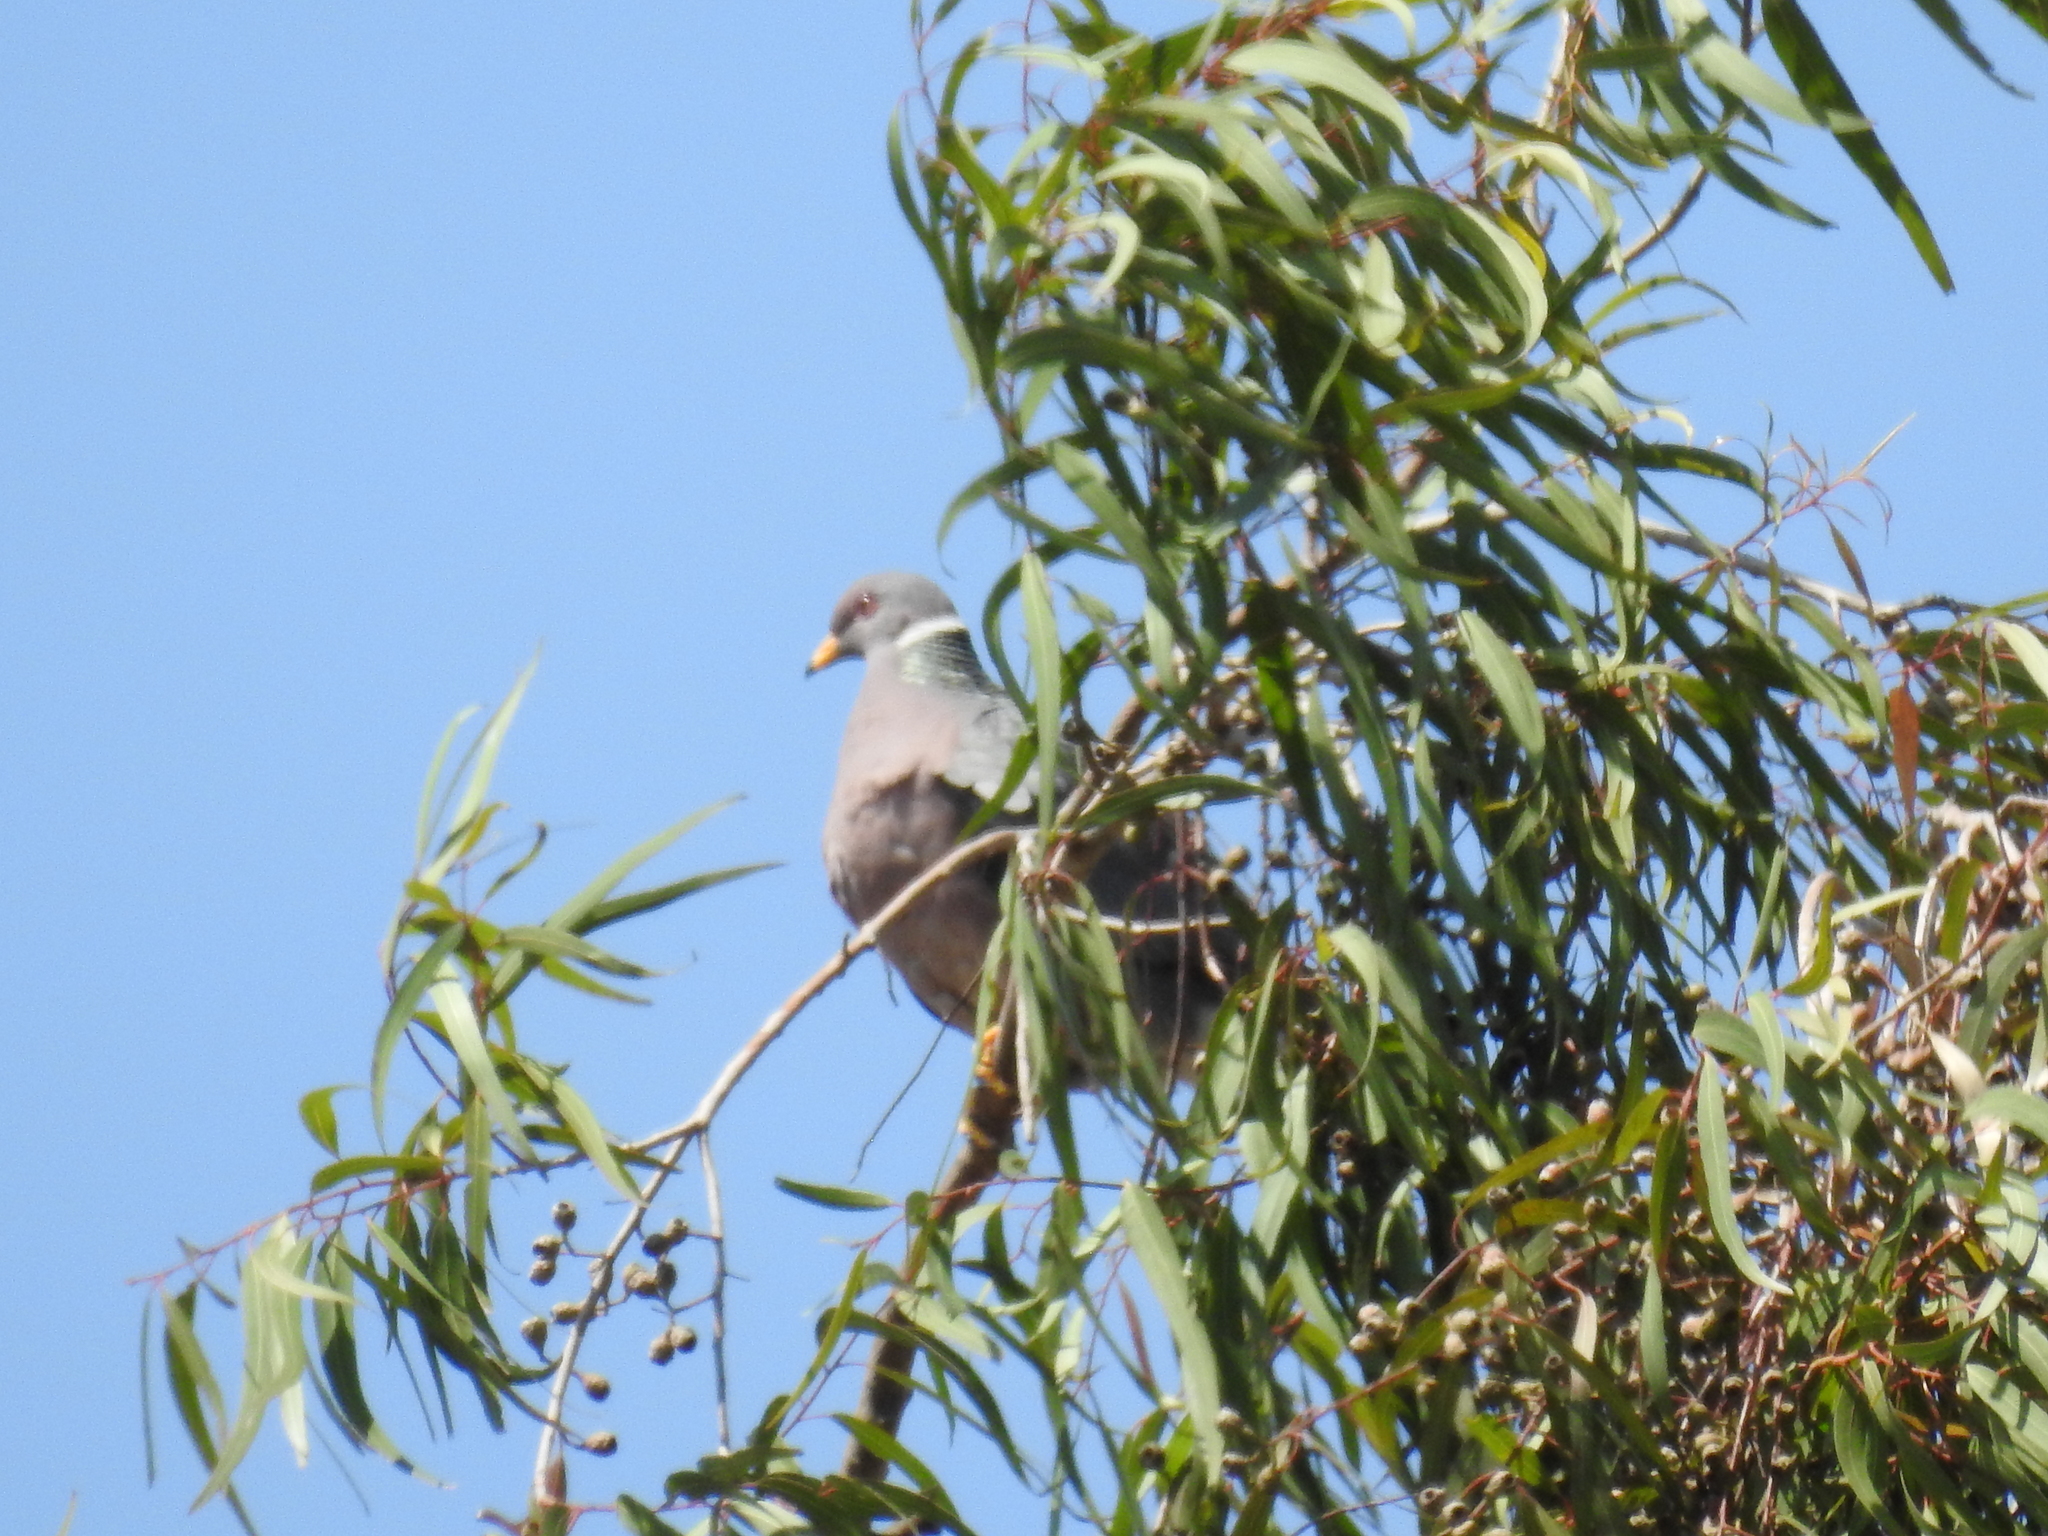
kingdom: Animalia
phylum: Chordata
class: Aves
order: Columbiformes
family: Columbidae
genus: Patagioenas
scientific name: Patagioenas fasciata
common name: Band-tailed pigeon
